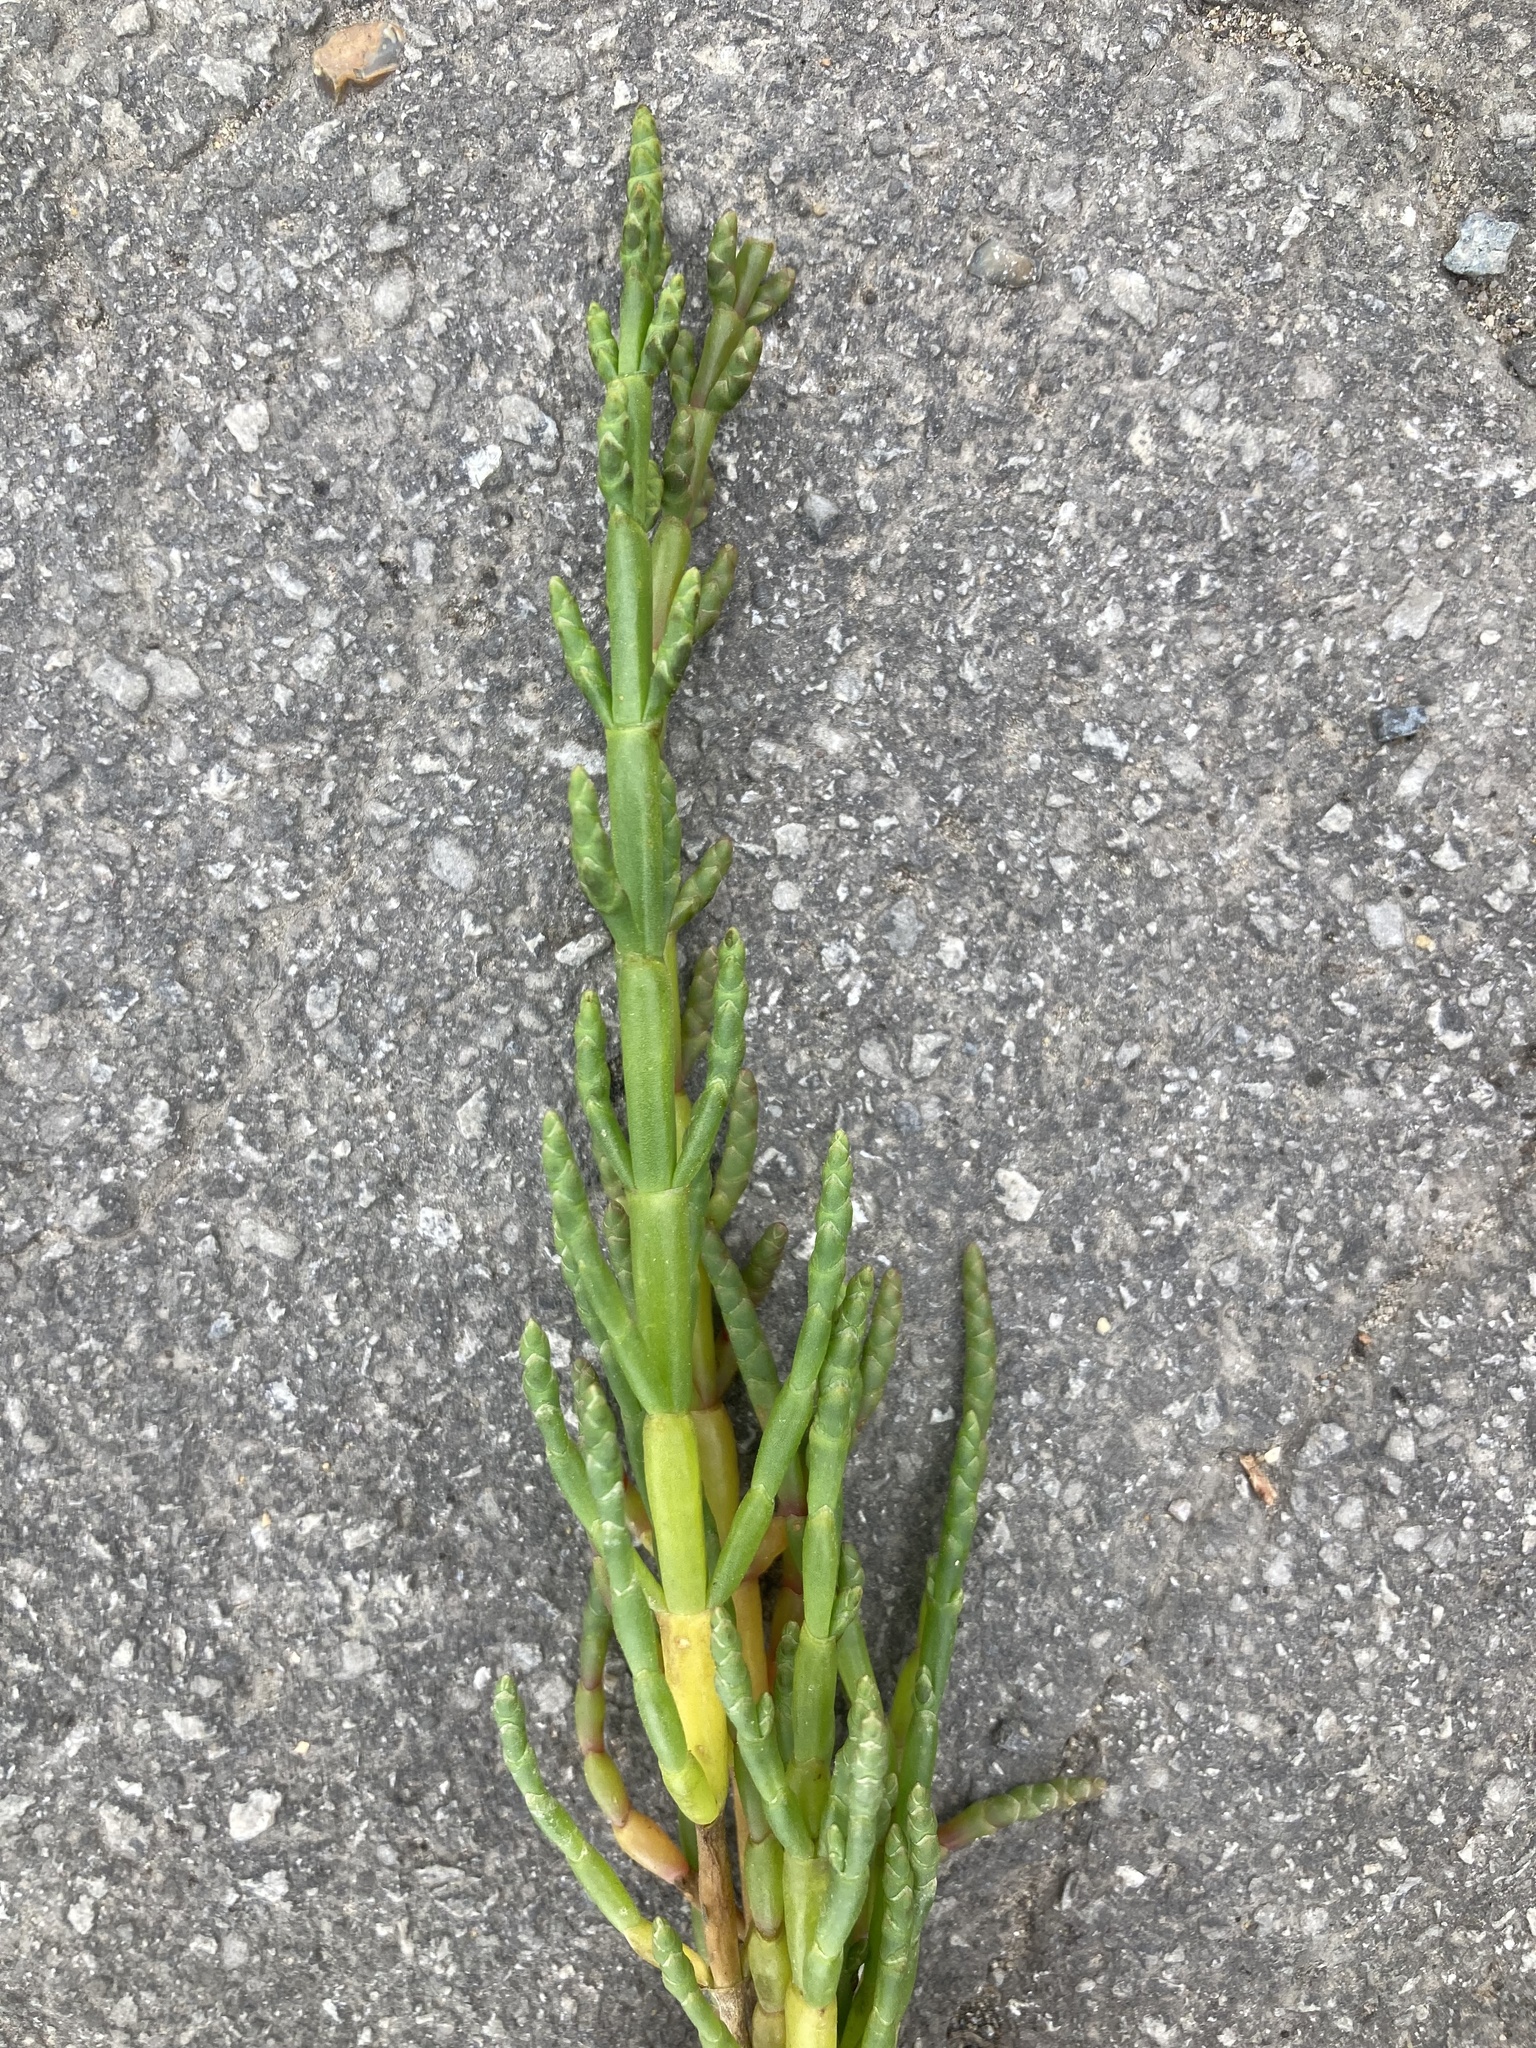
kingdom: Plantae
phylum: Tracheophyta
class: Magnoliopsida
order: Caryophyllales
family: Amaranthaceae
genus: Salicornia
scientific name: Salicornia europaea
